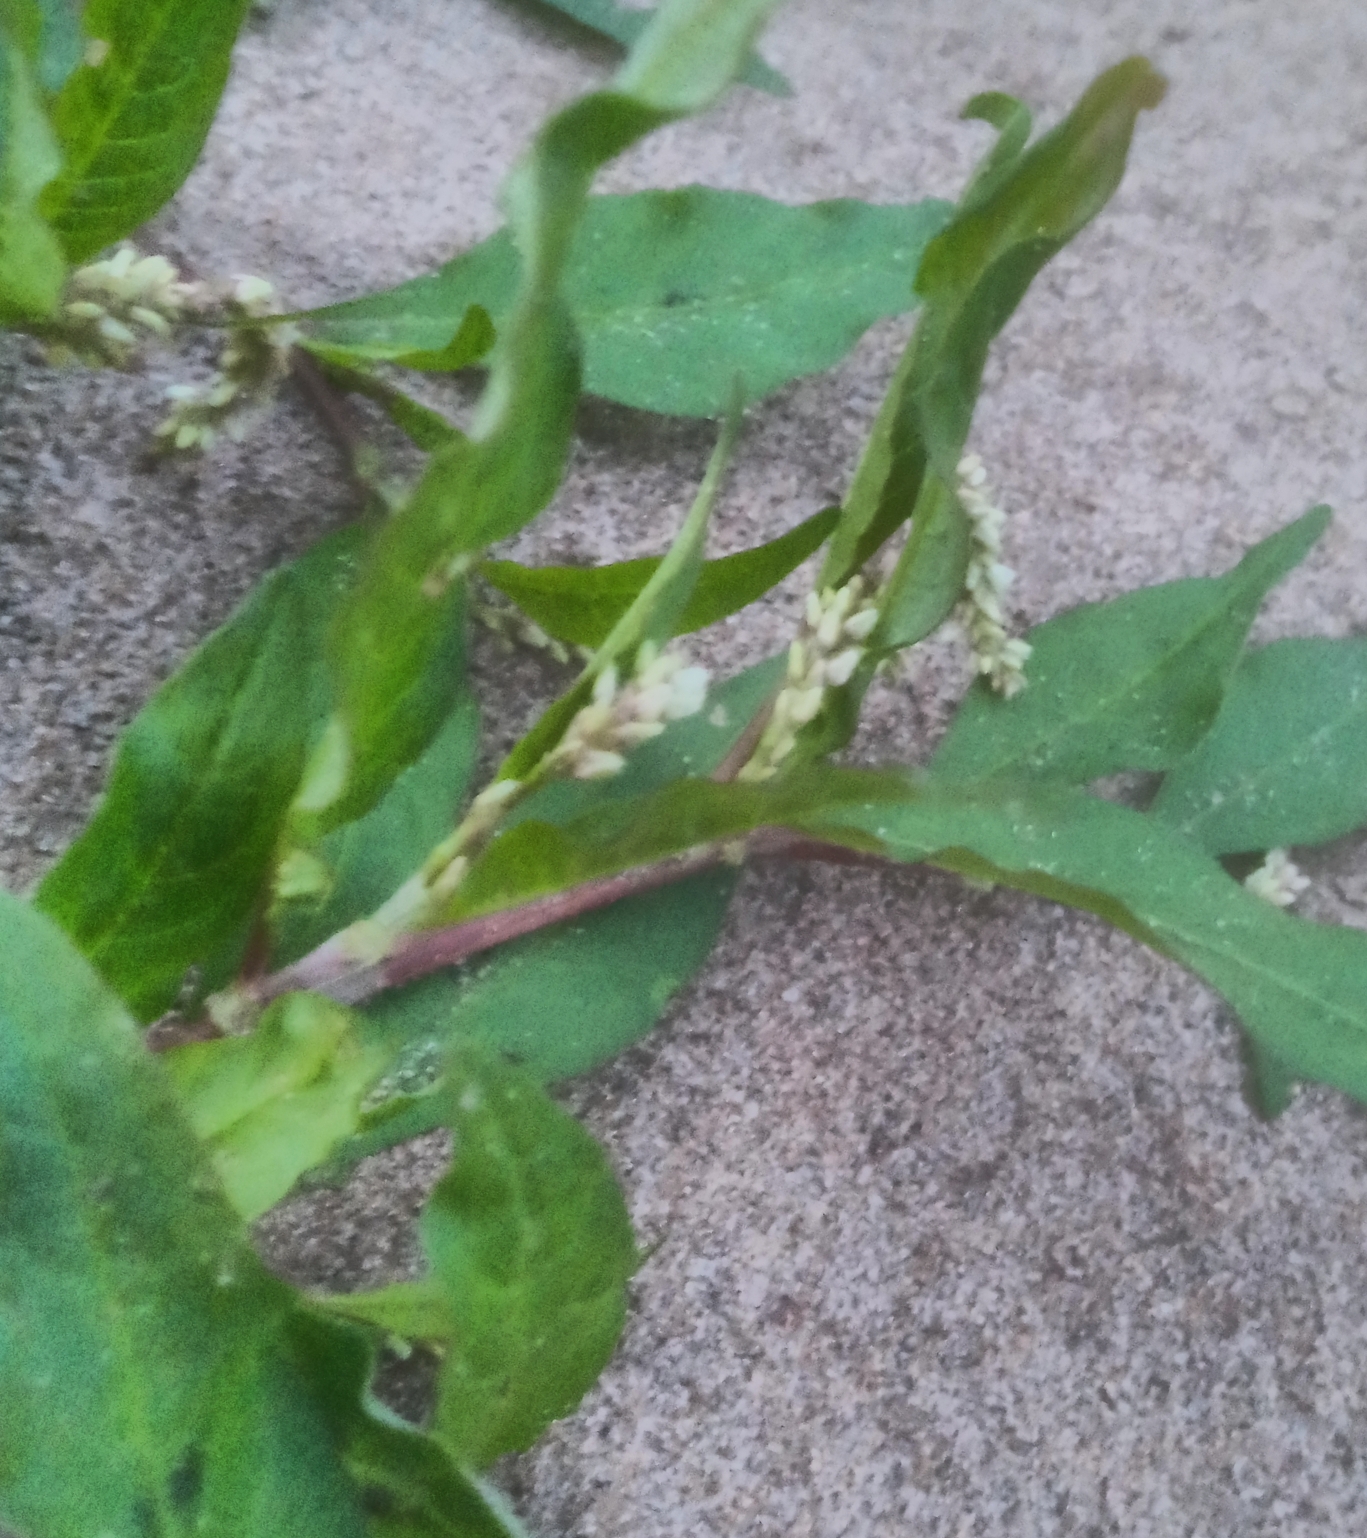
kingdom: Plantae
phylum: Tracheophyta
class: Magnoliopsida
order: Caryophyllales
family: Polygonaceae
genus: Persicaria
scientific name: Persicaria lapathifolia
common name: Curlytop knotweed
